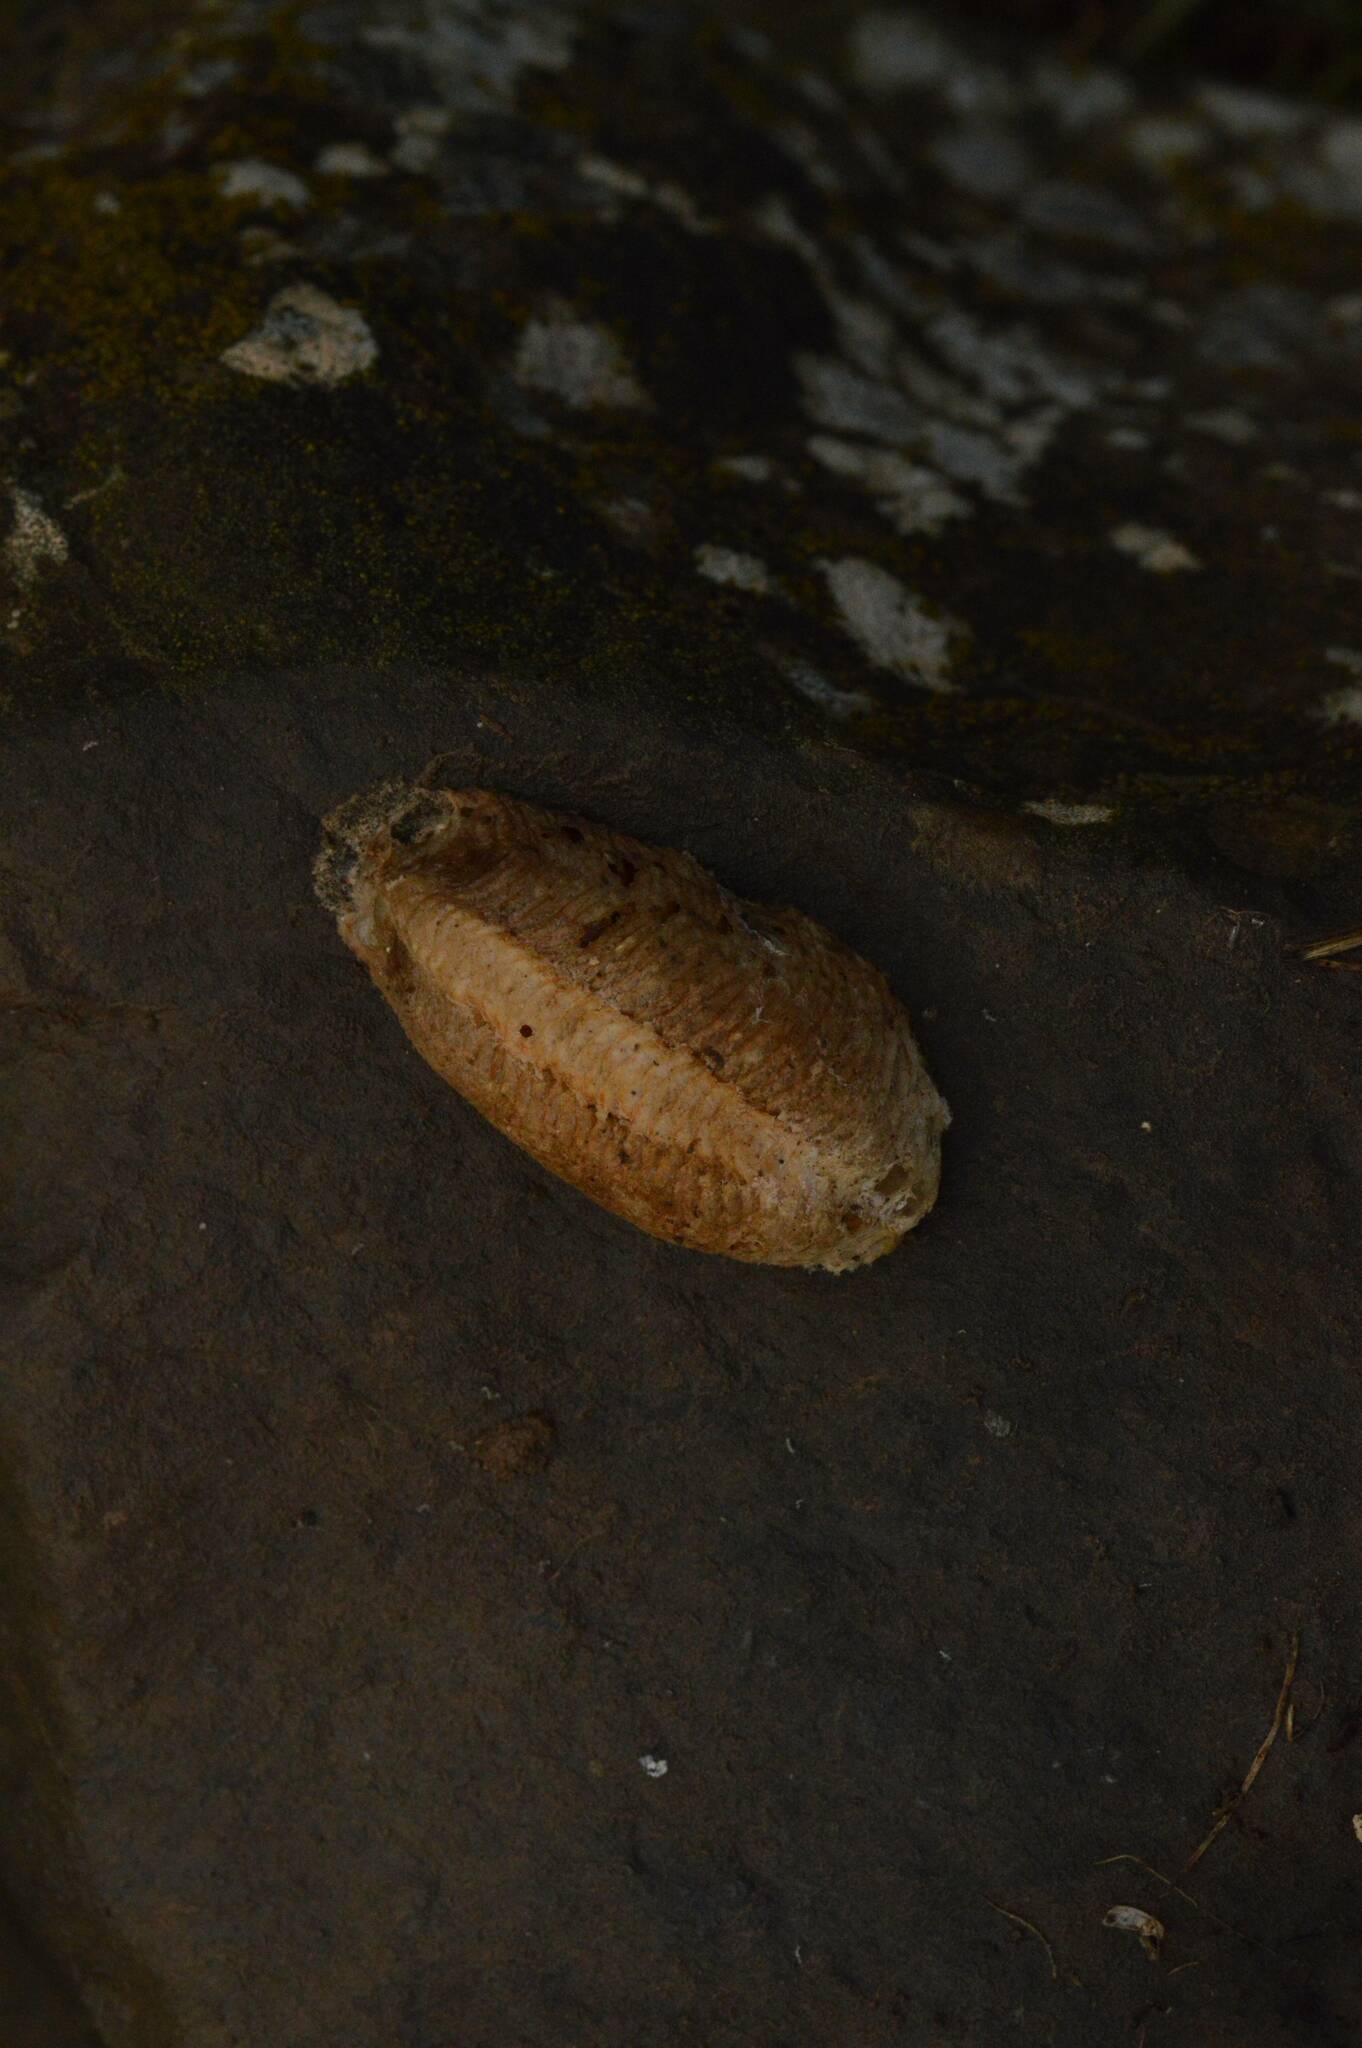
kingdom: Animalia
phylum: Arthropoda
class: Insecta
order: Mantodea
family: Mantidae
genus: Mantis
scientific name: Mantis religiosa
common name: Praying mantis
